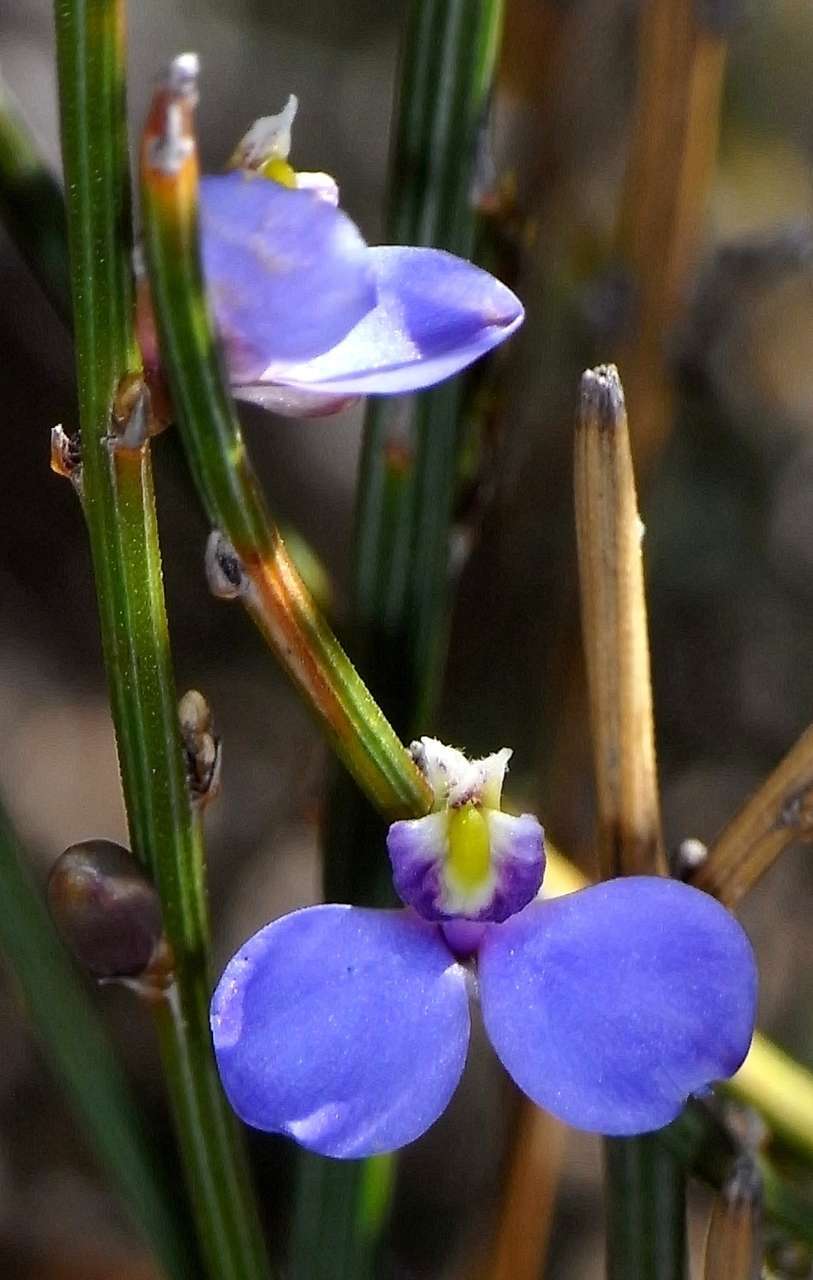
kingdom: Plantae
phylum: Tracheophyta
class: Magnoliopsida
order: Fabales
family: Polygalaceae
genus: Comesperma
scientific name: Comesperma scoparium
